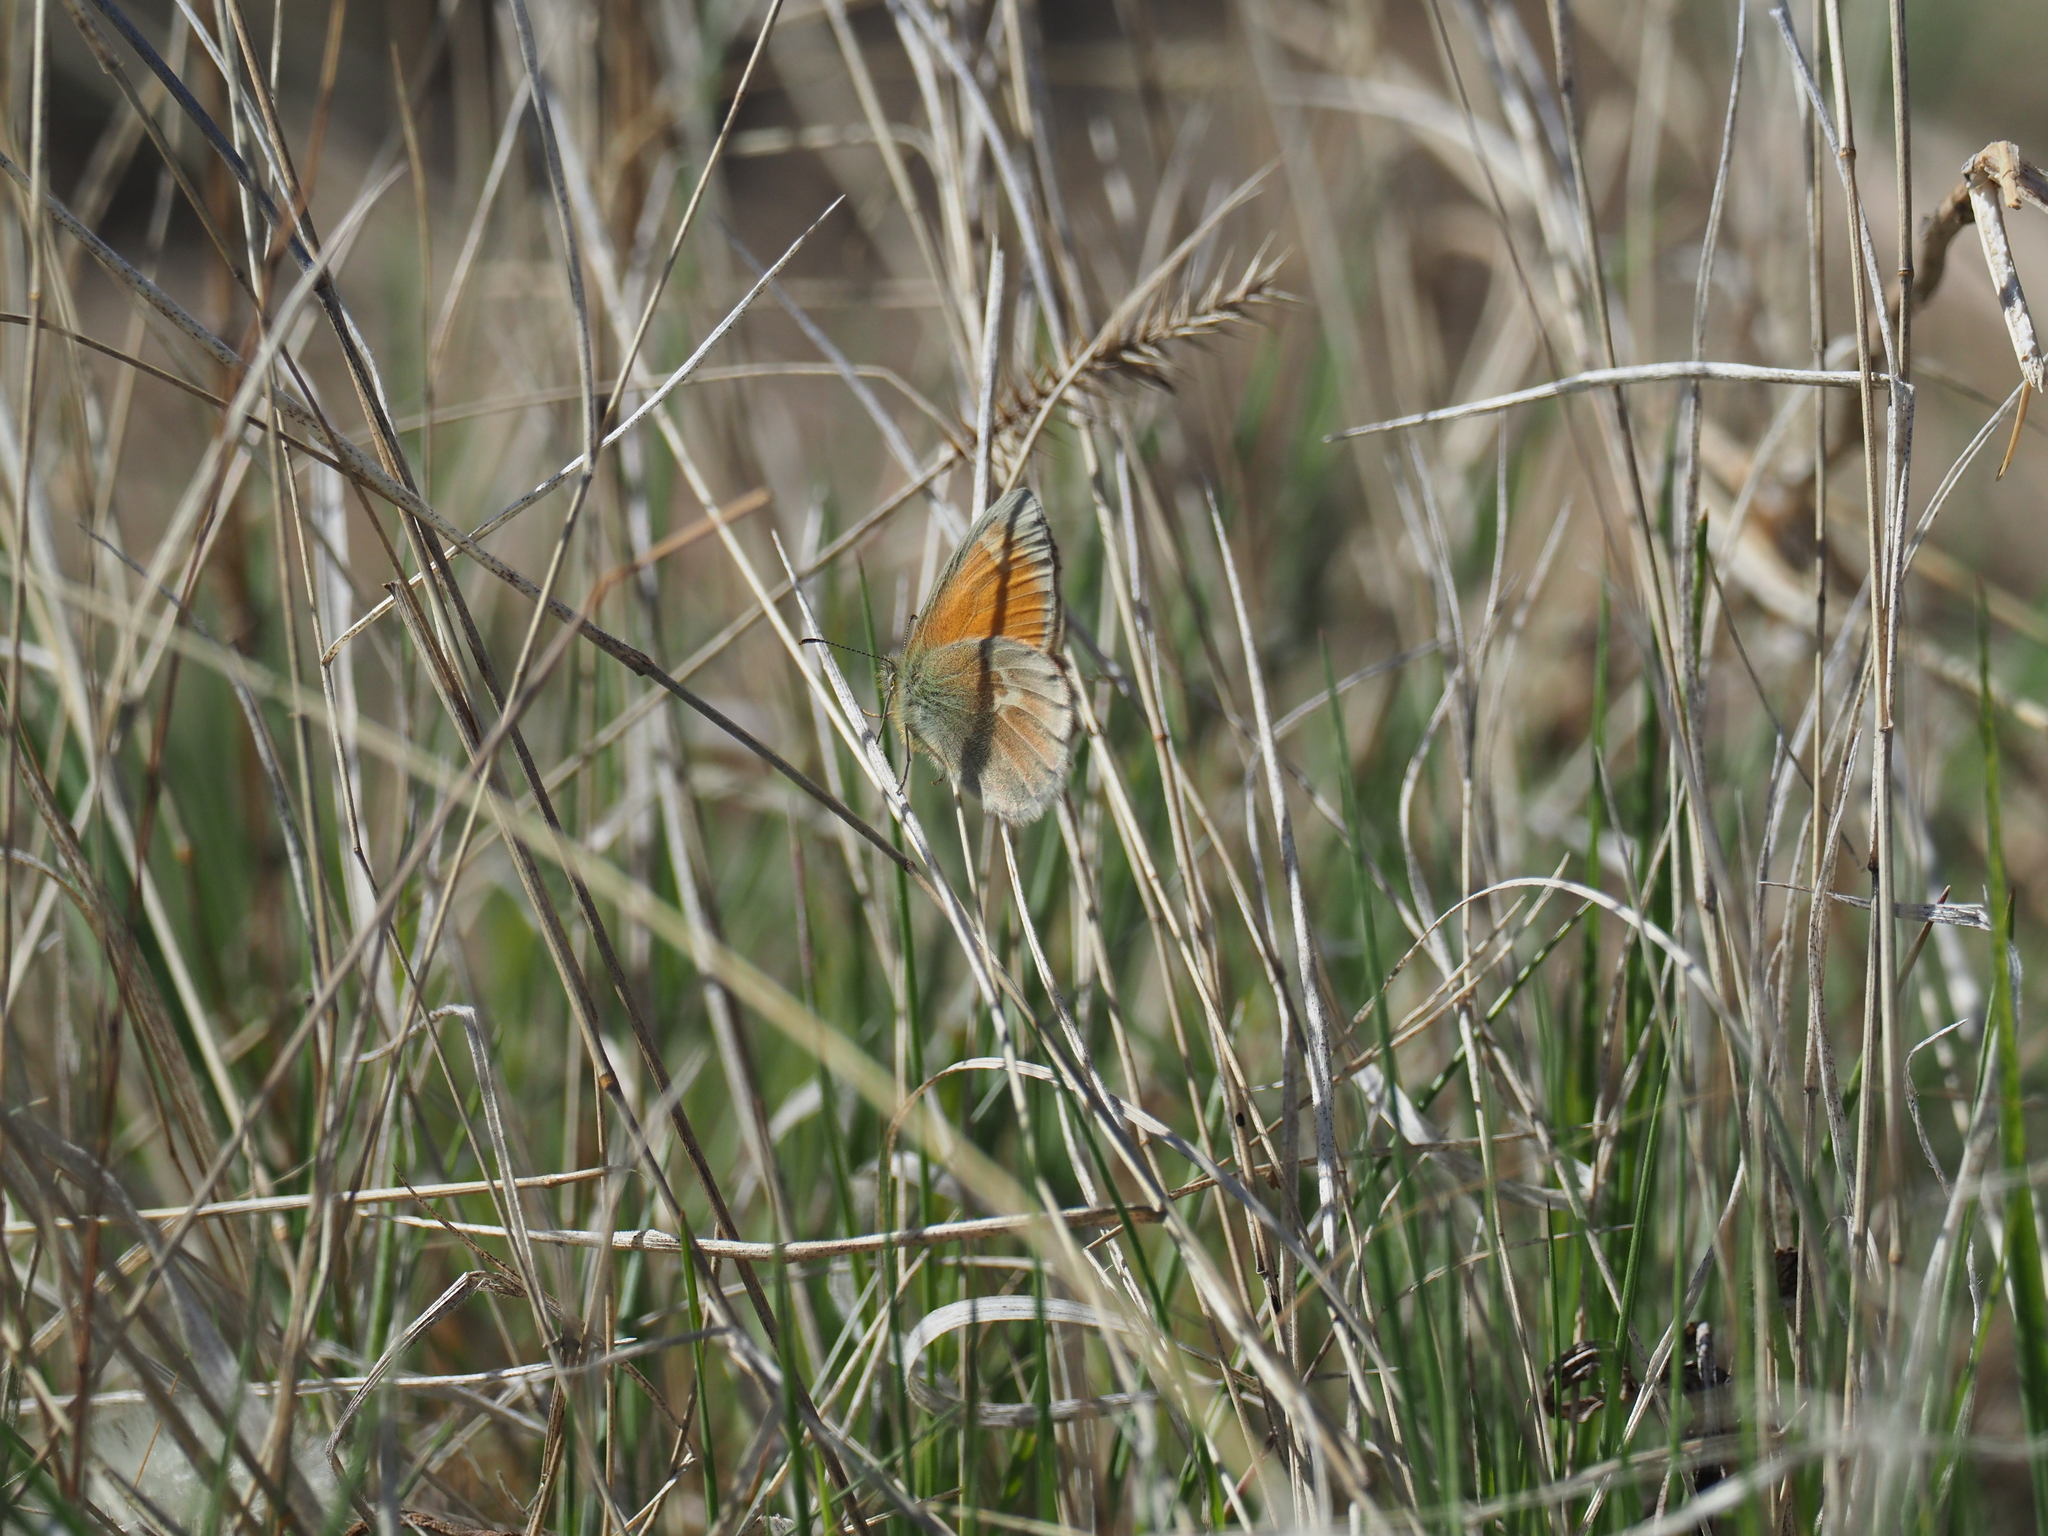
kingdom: Animalia
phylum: Arthropoda
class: Insecta
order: Lepidoptera
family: Nymphalidae
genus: Coenonympha
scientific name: Coenonympha california
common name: Common ringlet
